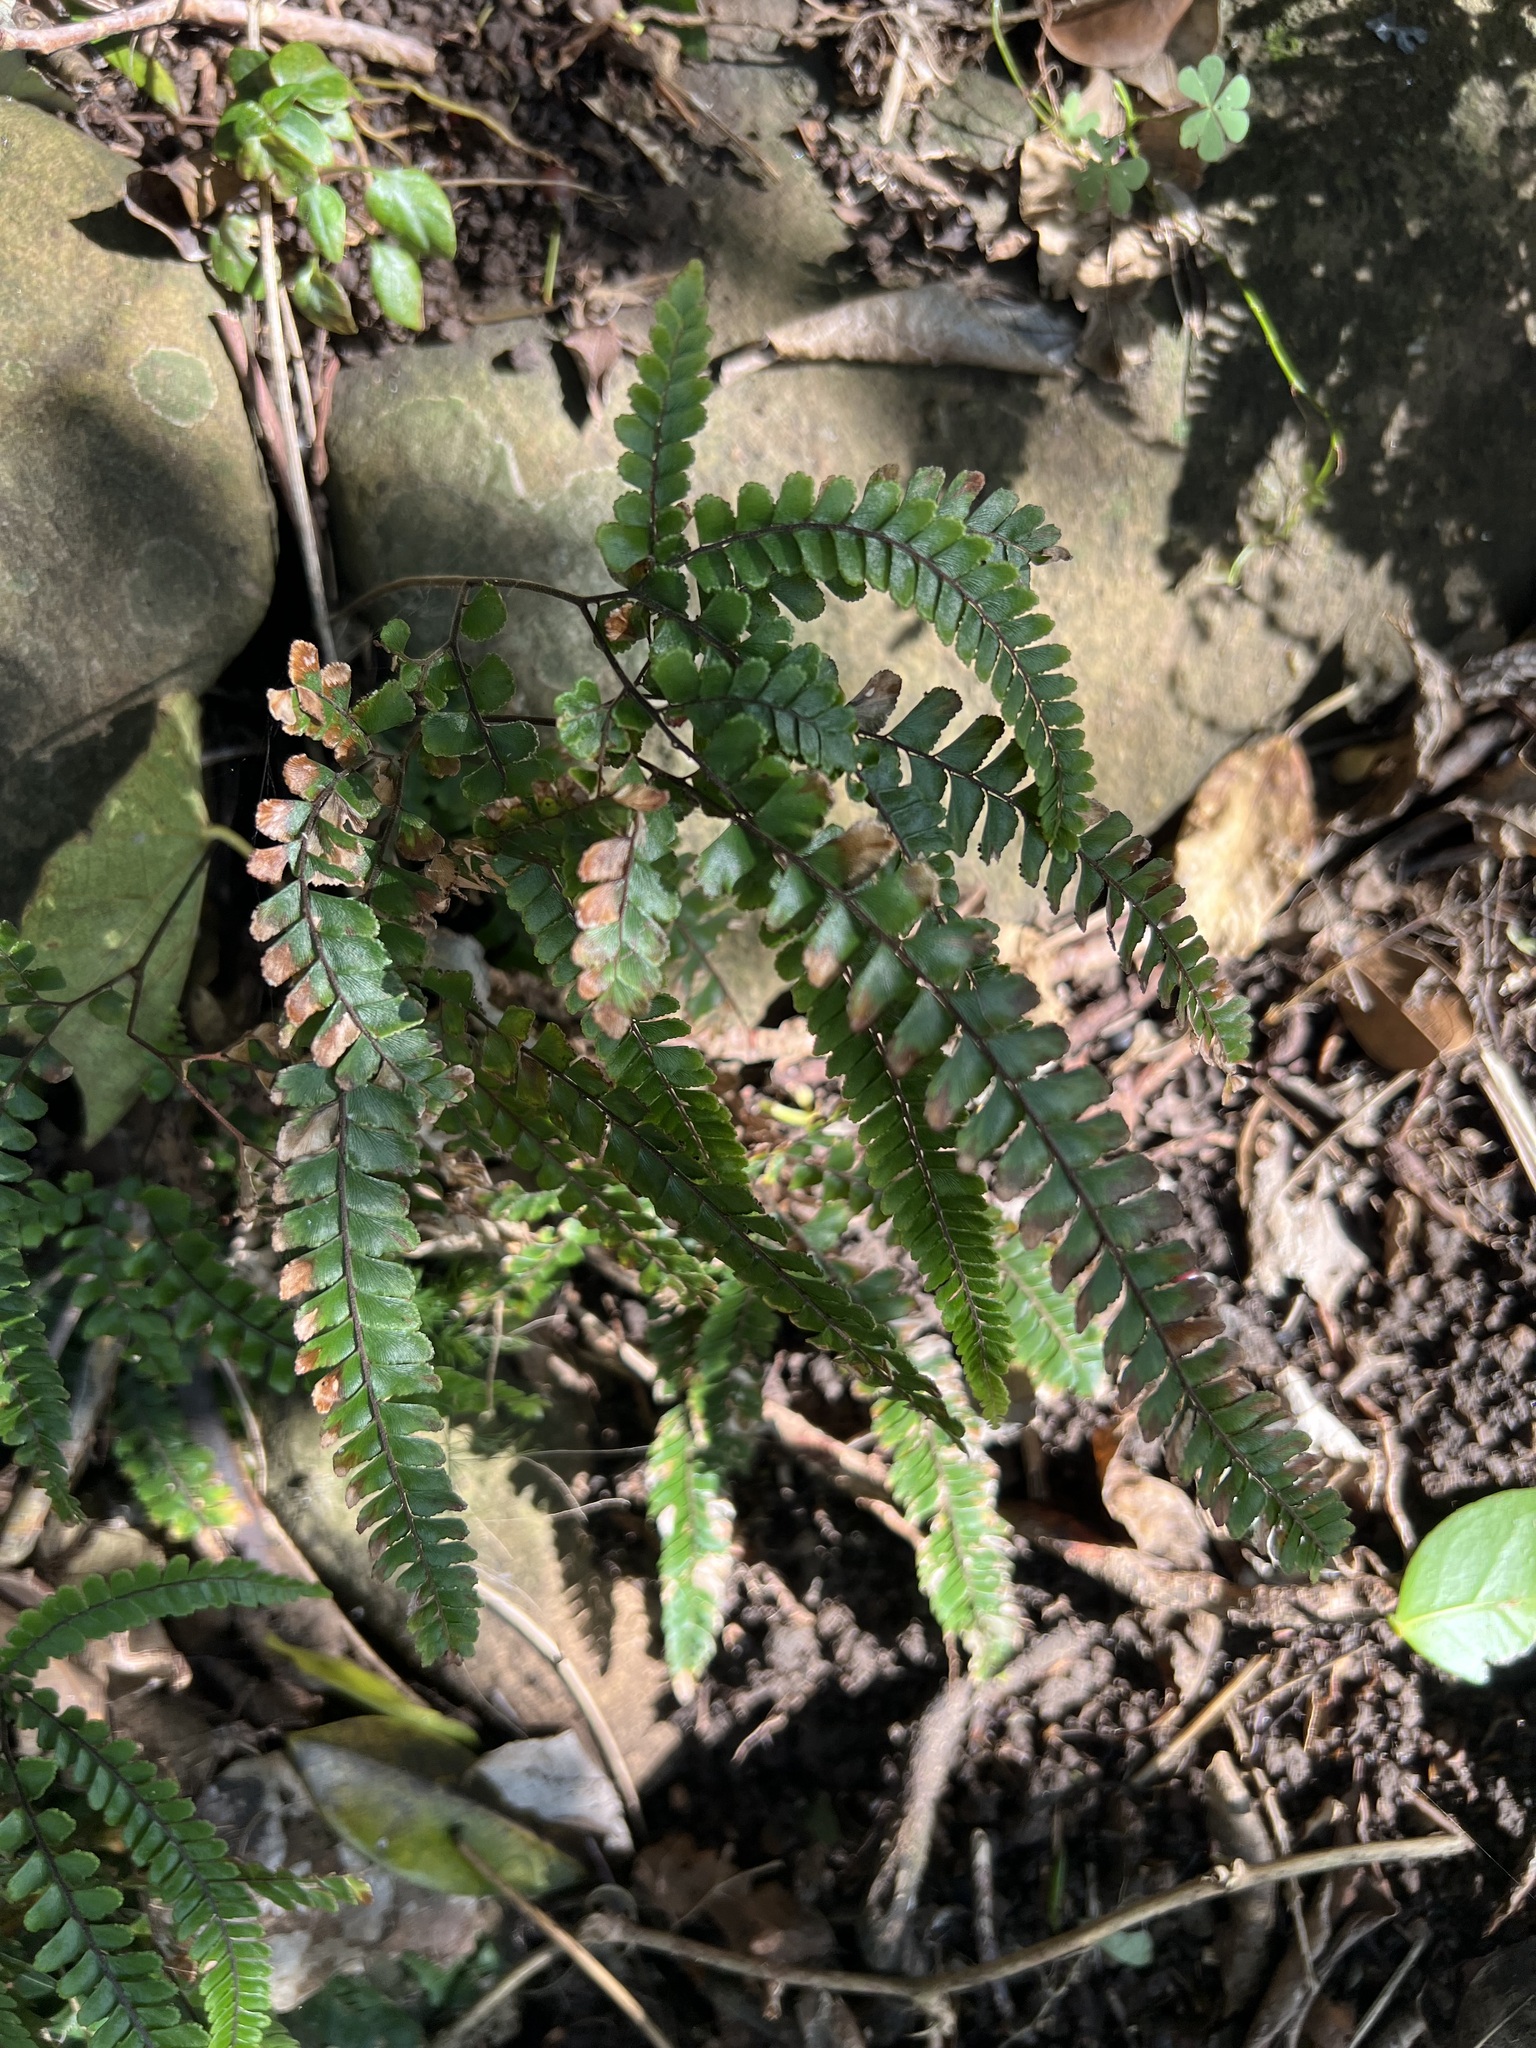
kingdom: Plantae
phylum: Tracheophyta
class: Polypodiopsida
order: Polypodiales
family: Pteridaceae
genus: Adiantum
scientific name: Adiantum hispidulum
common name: Rough maidenhair
